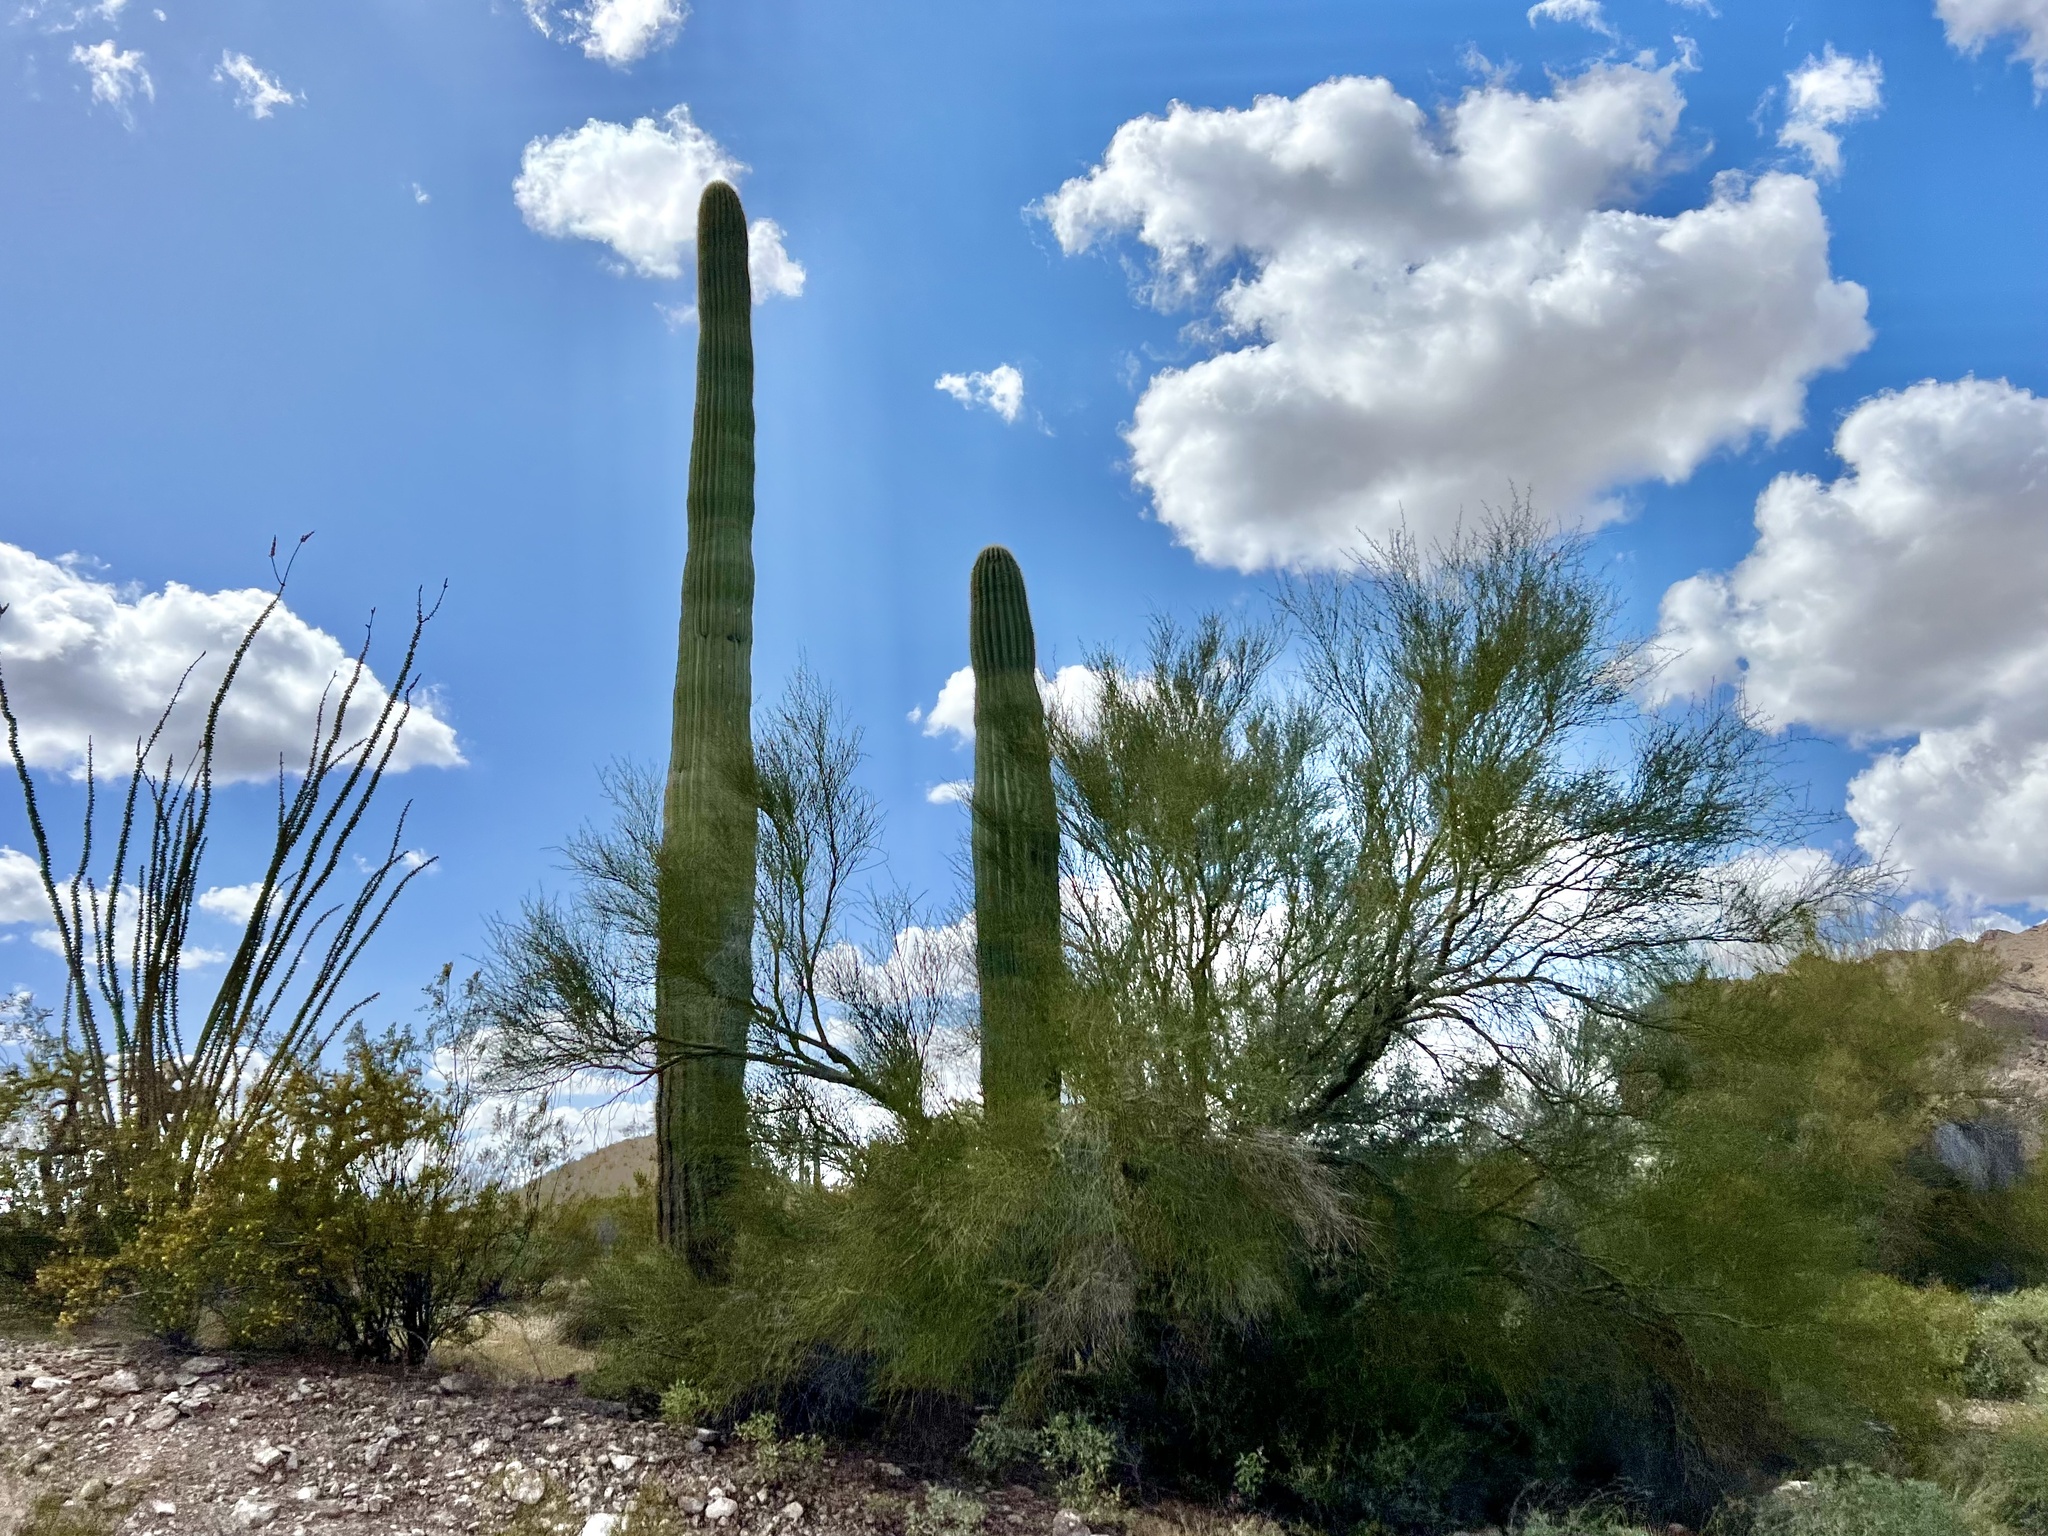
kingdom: Plantae
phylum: Tracheophyta
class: Magnoliopsida
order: Caryophyllales
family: Cactaceae
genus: Carnegiea
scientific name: Carnegiea gigantea
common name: Saguaro
